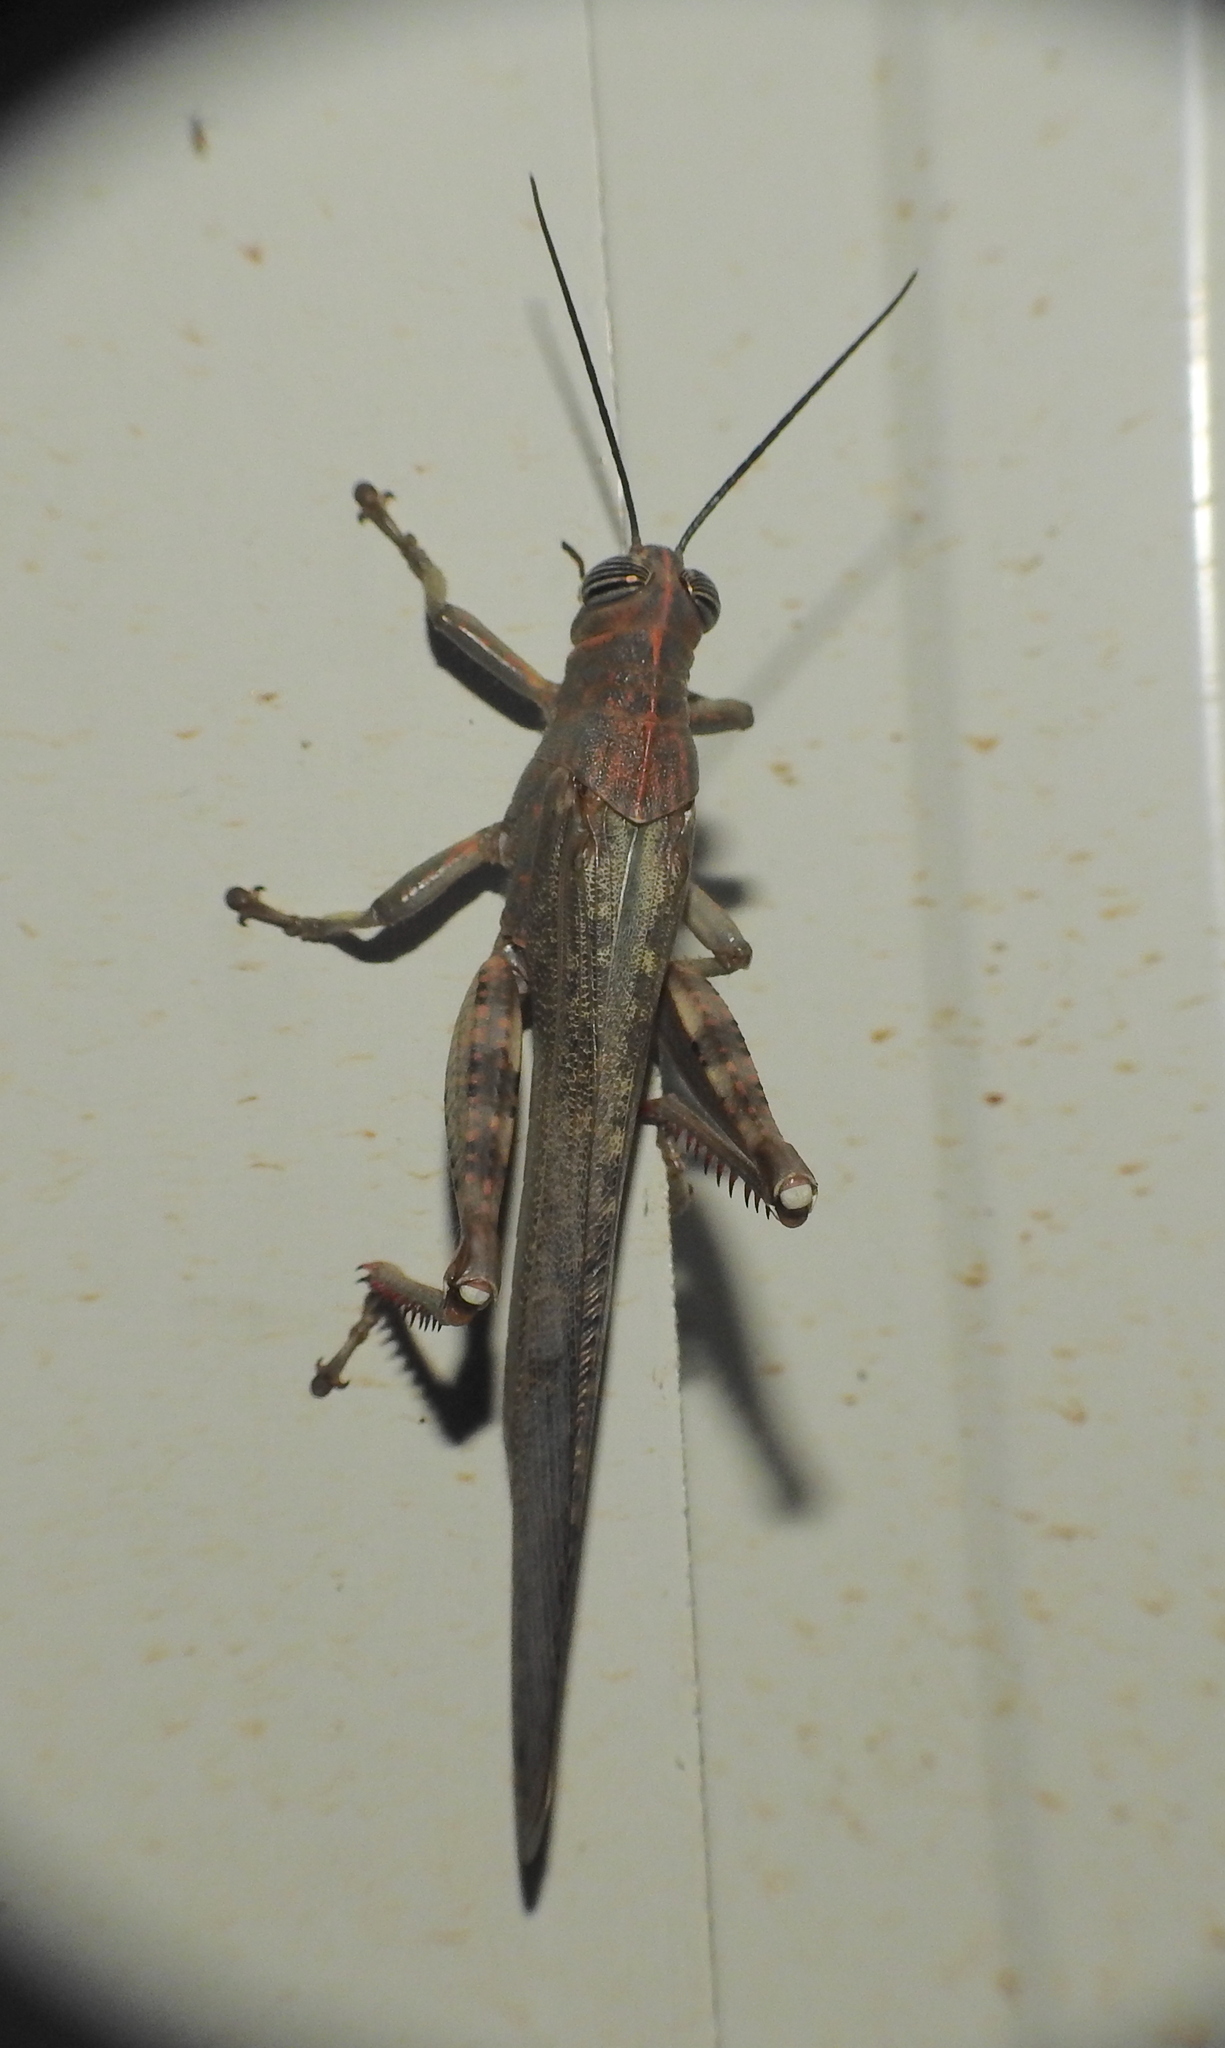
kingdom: Animalia
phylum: Arthropoda
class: Insecta
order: Orthoptera
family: Acrididae
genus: Anacridium
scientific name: Anacridium flavescens
